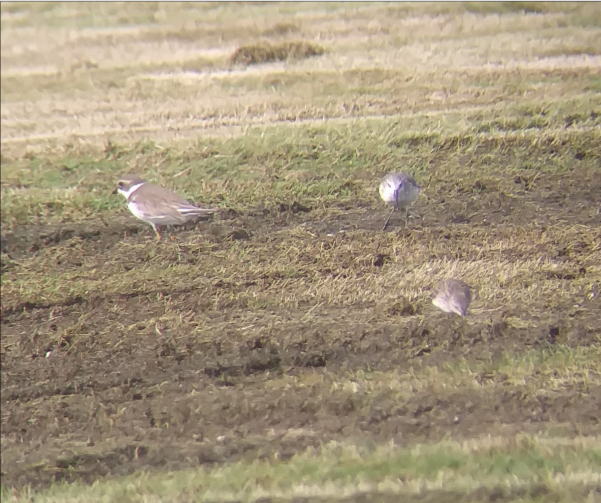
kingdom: Animalia
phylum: Chordata
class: Aves
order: Charadriiformes
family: Charadriidae
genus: Charadrius
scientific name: Charadrius semipalmatus
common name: Semipalmated plover
